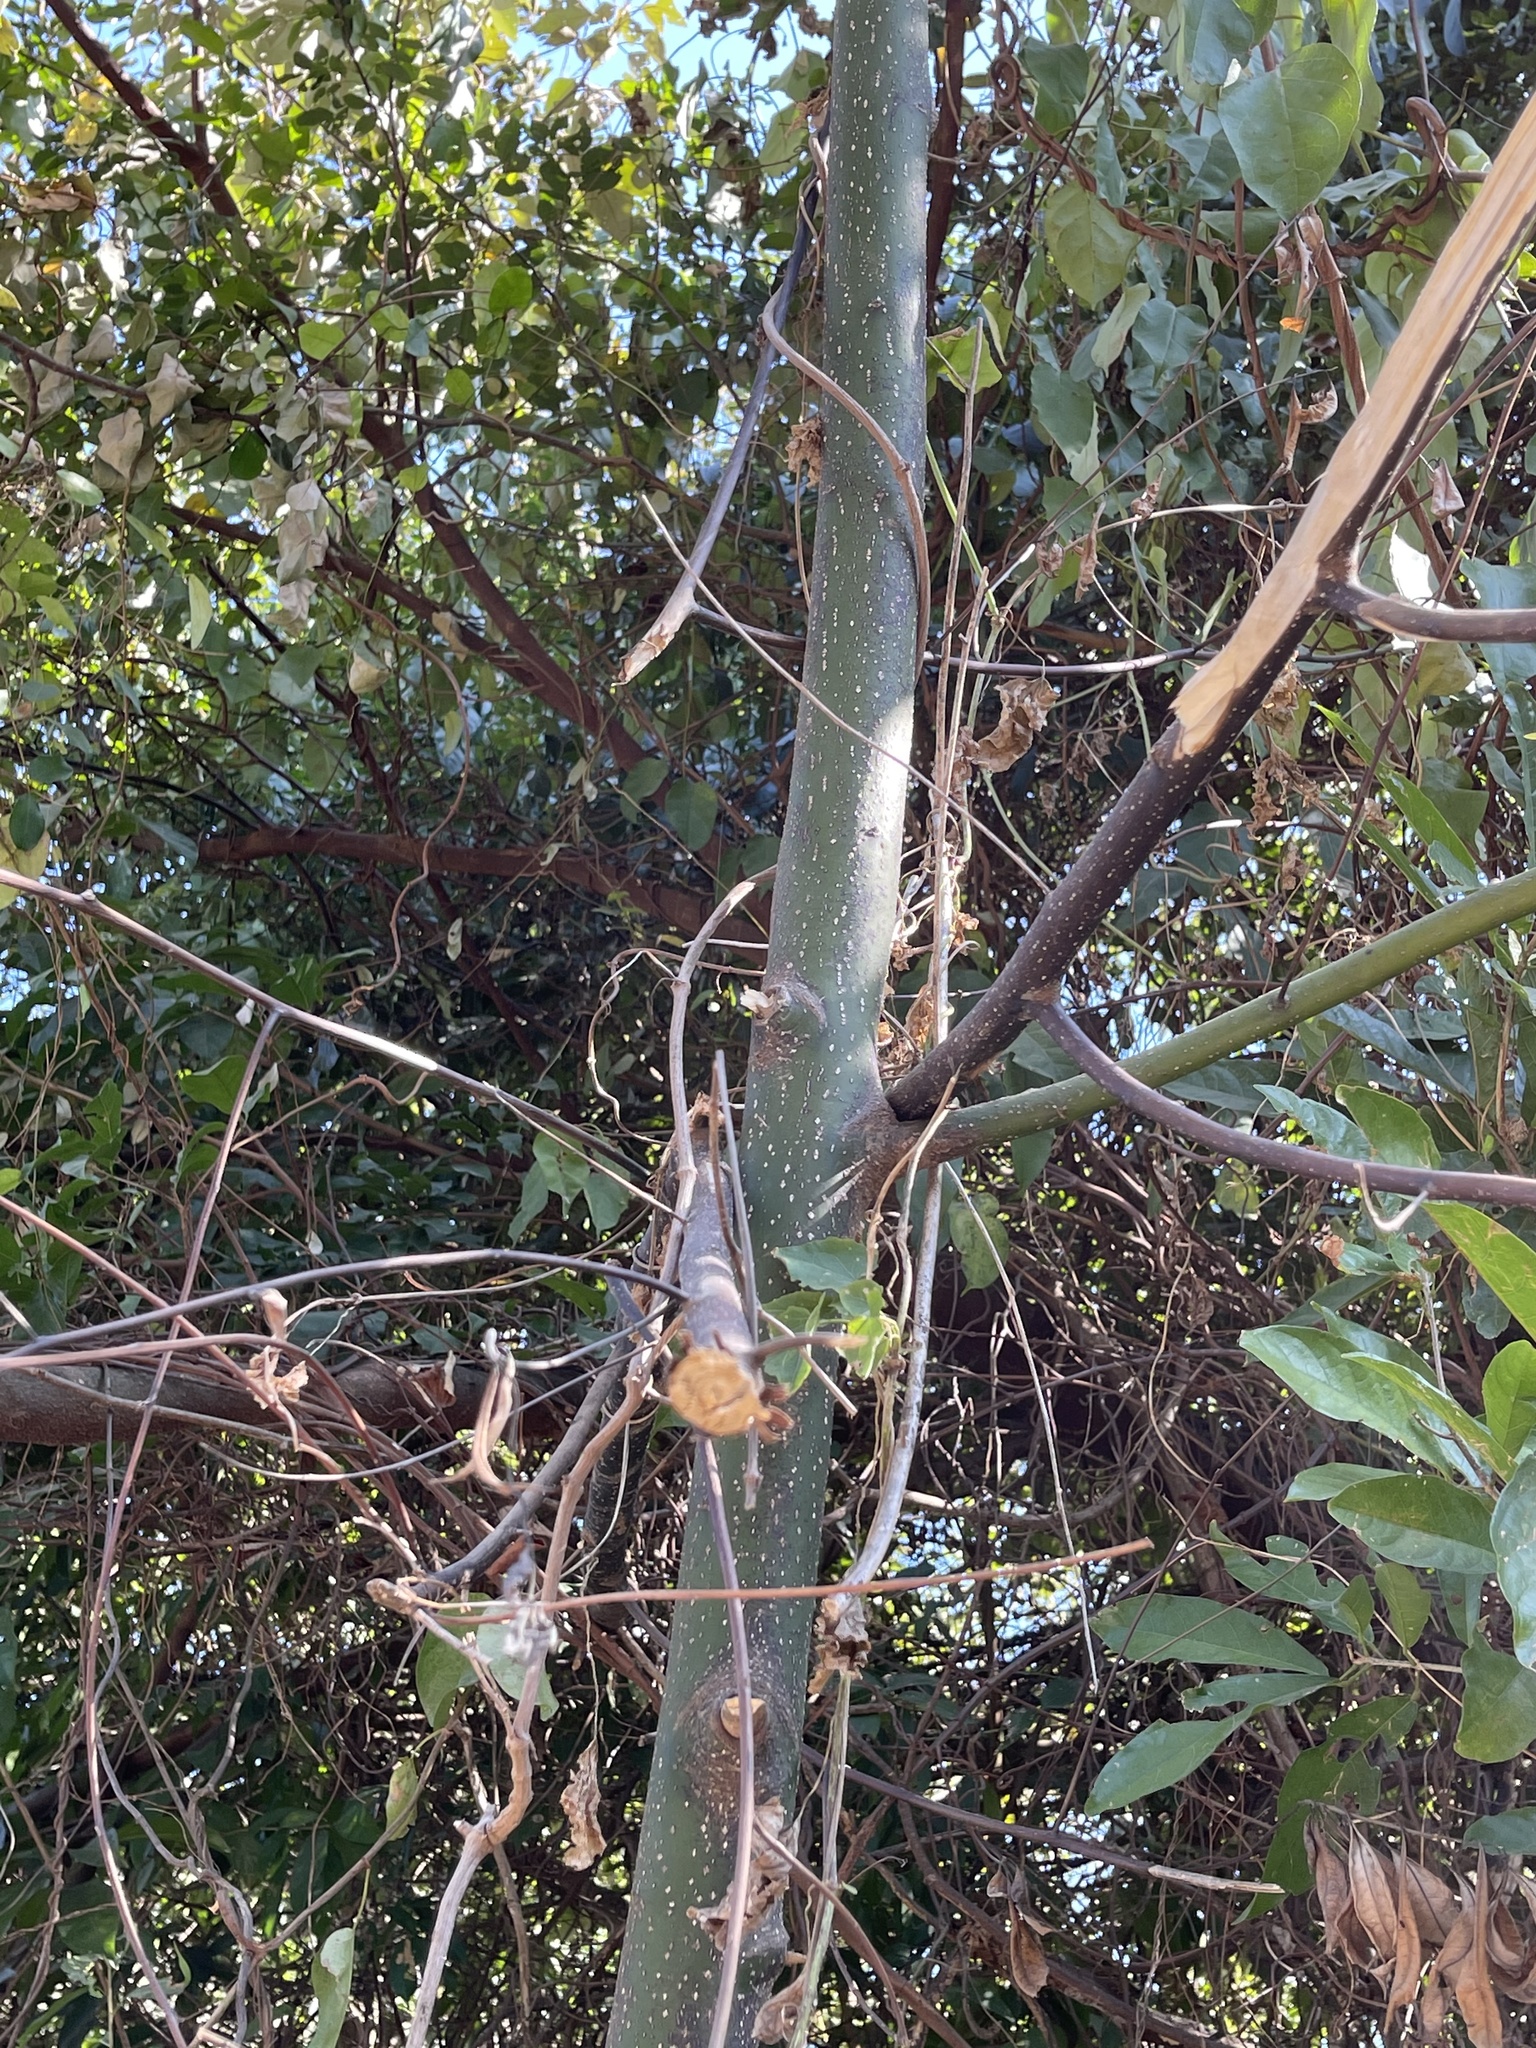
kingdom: Plantae
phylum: Tracheophyta
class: Magnoliopsida
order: Laurales
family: Lauraceae
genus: Litsea
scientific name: Litsea cubeba
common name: Mountain-pepper
